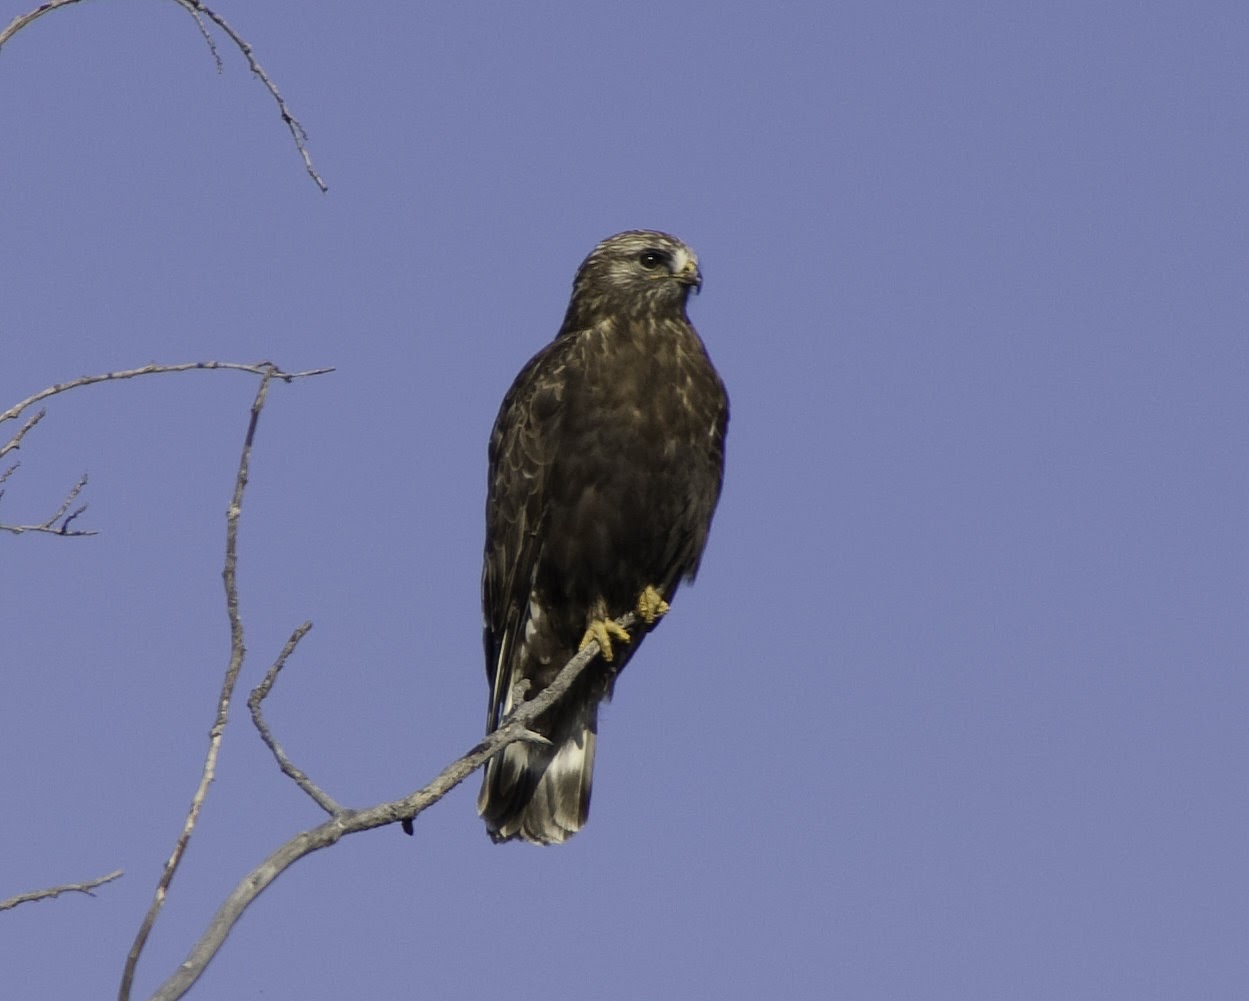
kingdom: Animalia
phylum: Chordata
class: Aves
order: Accipitriformes
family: Accipitridae
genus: Buteo
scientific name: Buteo lagopus
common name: Rough-legged buzzard
